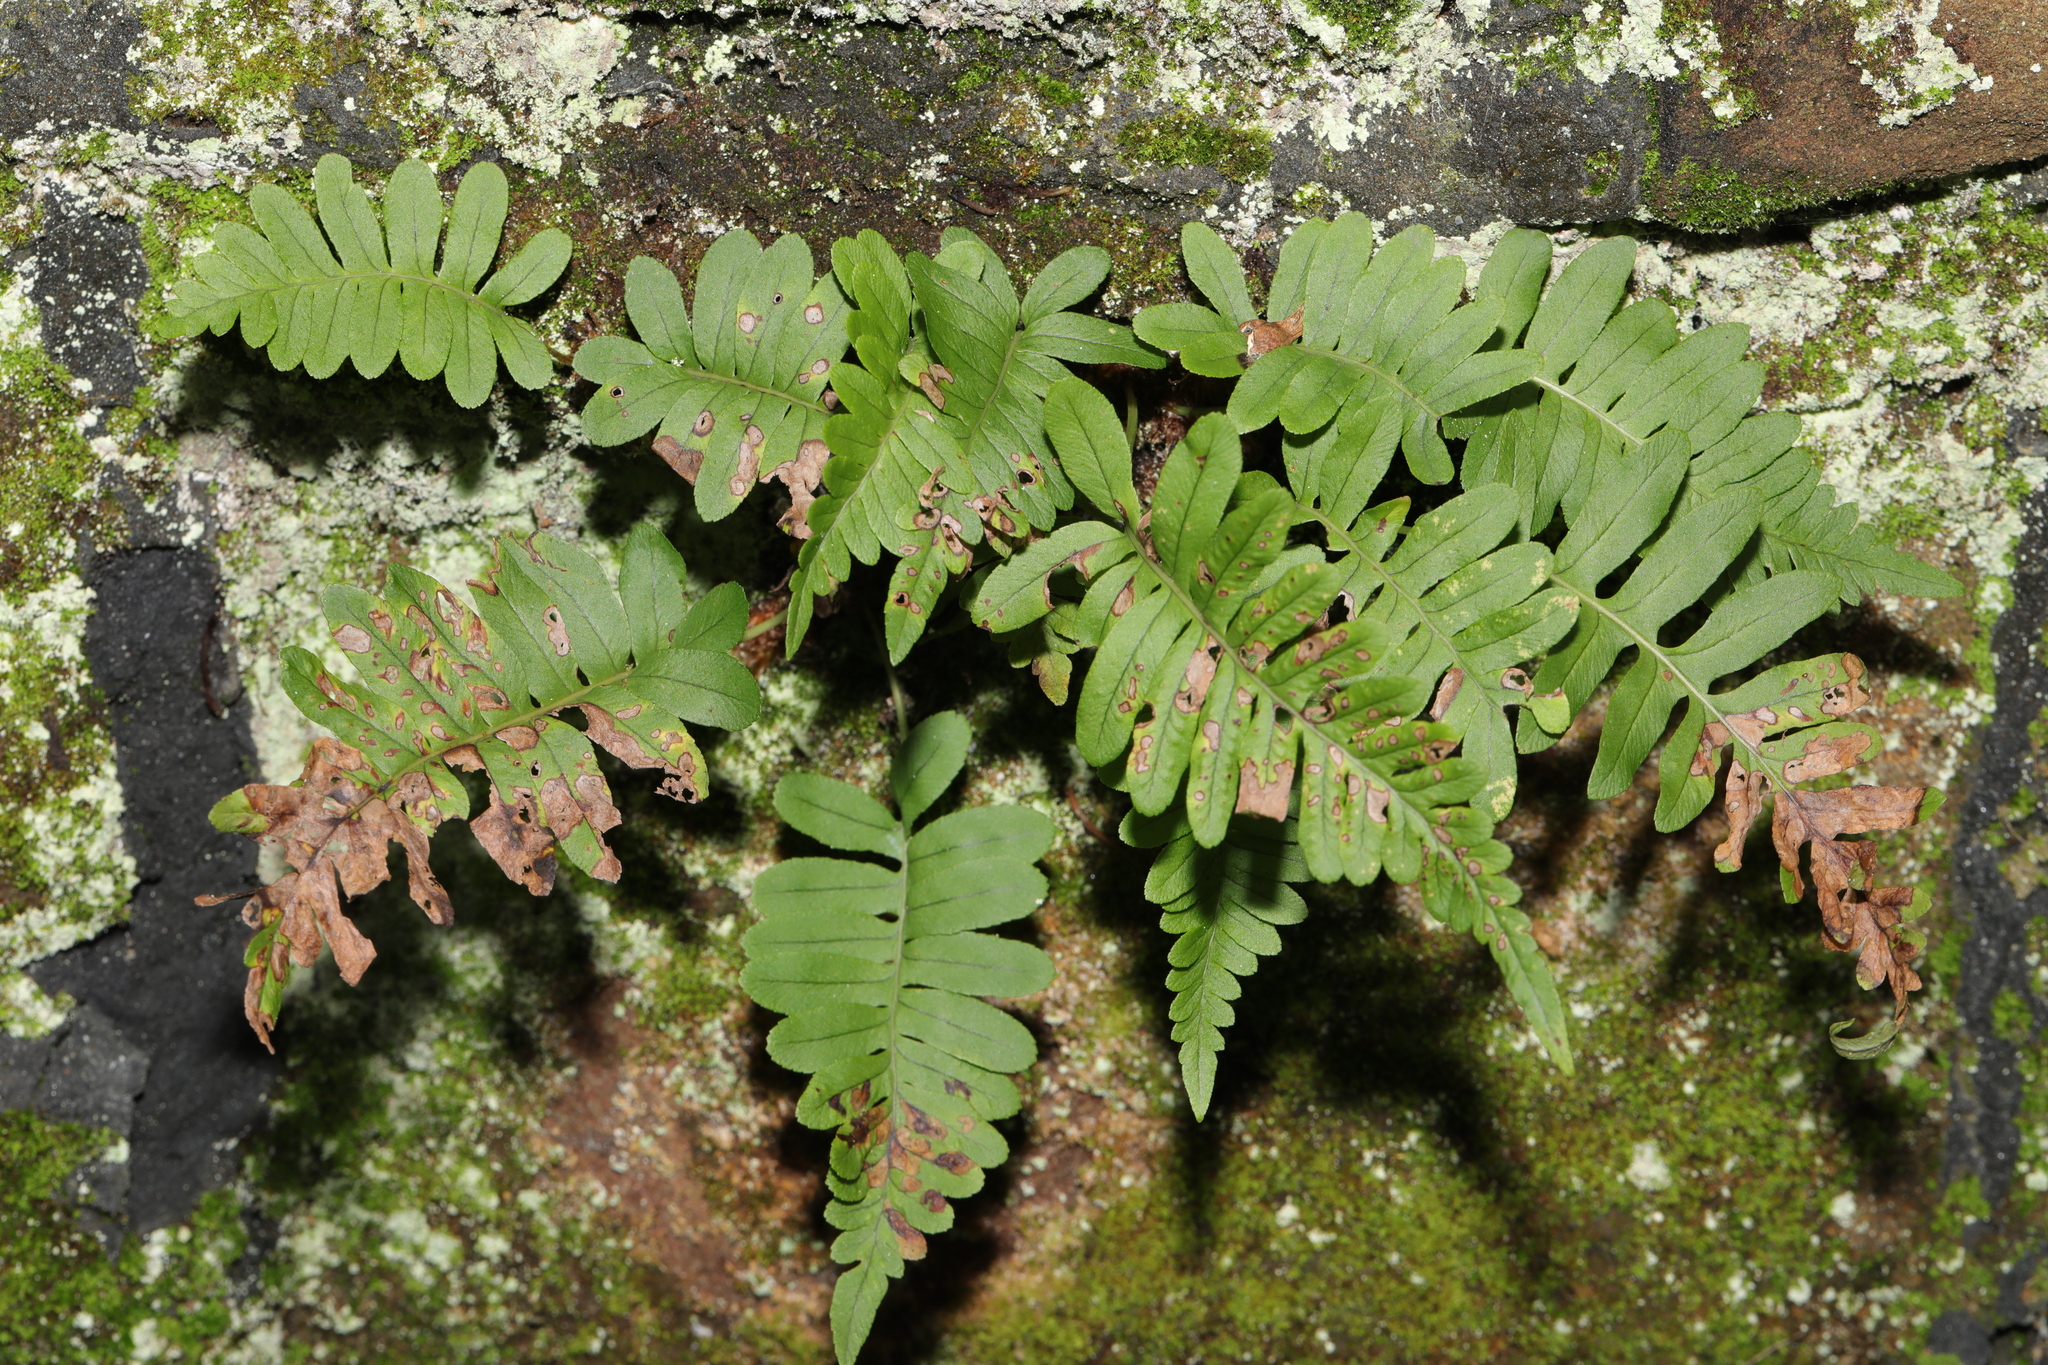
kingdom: Plantae
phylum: Tracheophyta
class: Polypodiopsida
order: Polypodiales
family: Polypodiaceae
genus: Polypodium
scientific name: Polypodium
